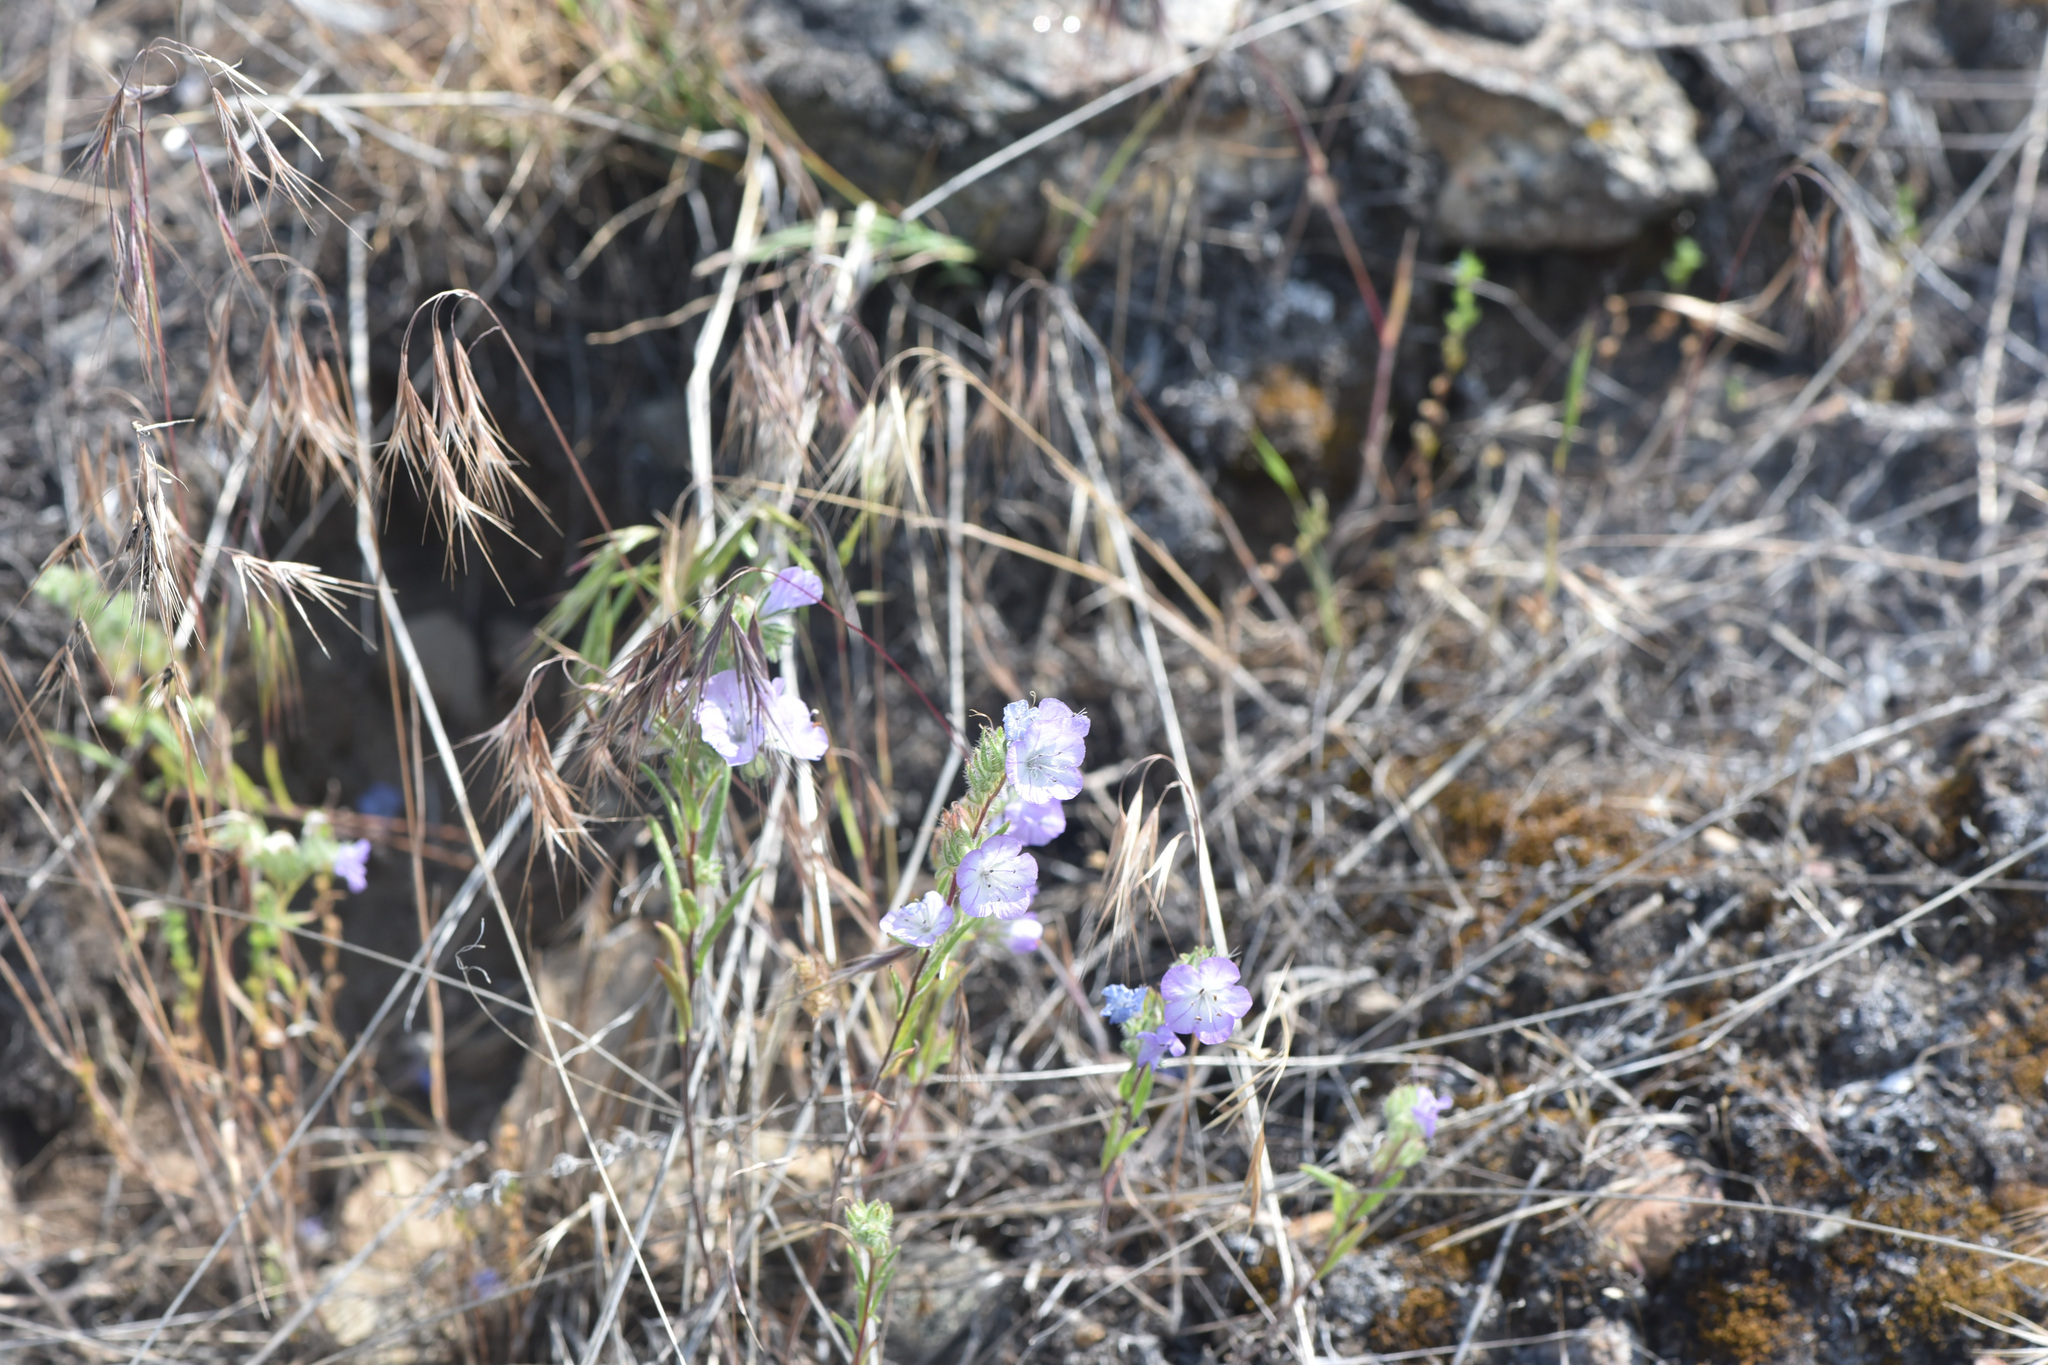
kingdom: Plantae
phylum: Tracheophyta
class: Magnoliopsida
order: Boraginales
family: Hydrophyllaceae
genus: Phacelia
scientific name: Phacelia linearis
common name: Linear-leaved phacelia
